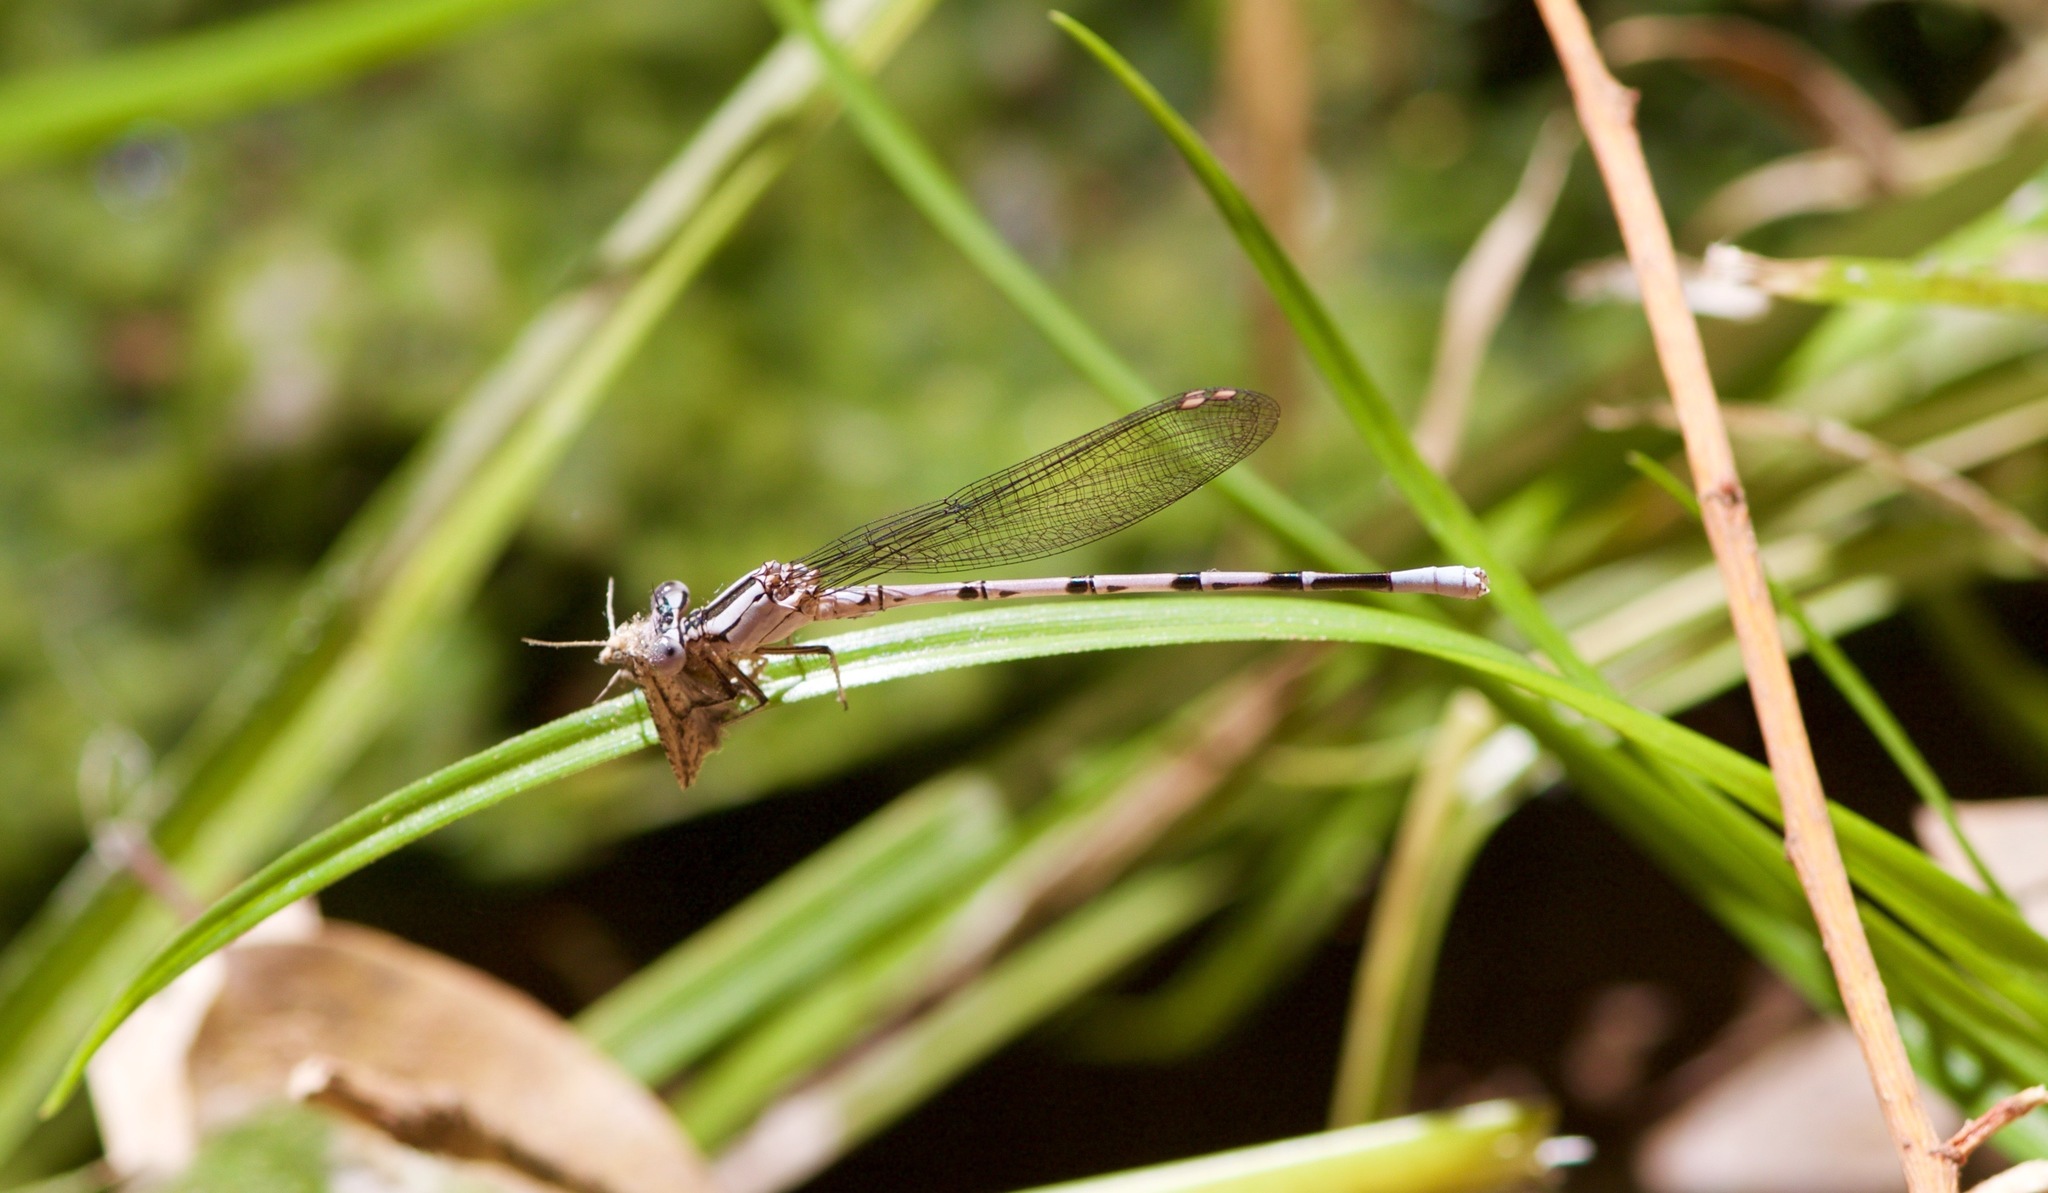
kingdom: Animalia
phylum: Arthropoda
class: Insecta
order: Odonata
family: Coenagrionidae
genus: Argia
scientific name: Argia vivida
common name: Vivid dancer
